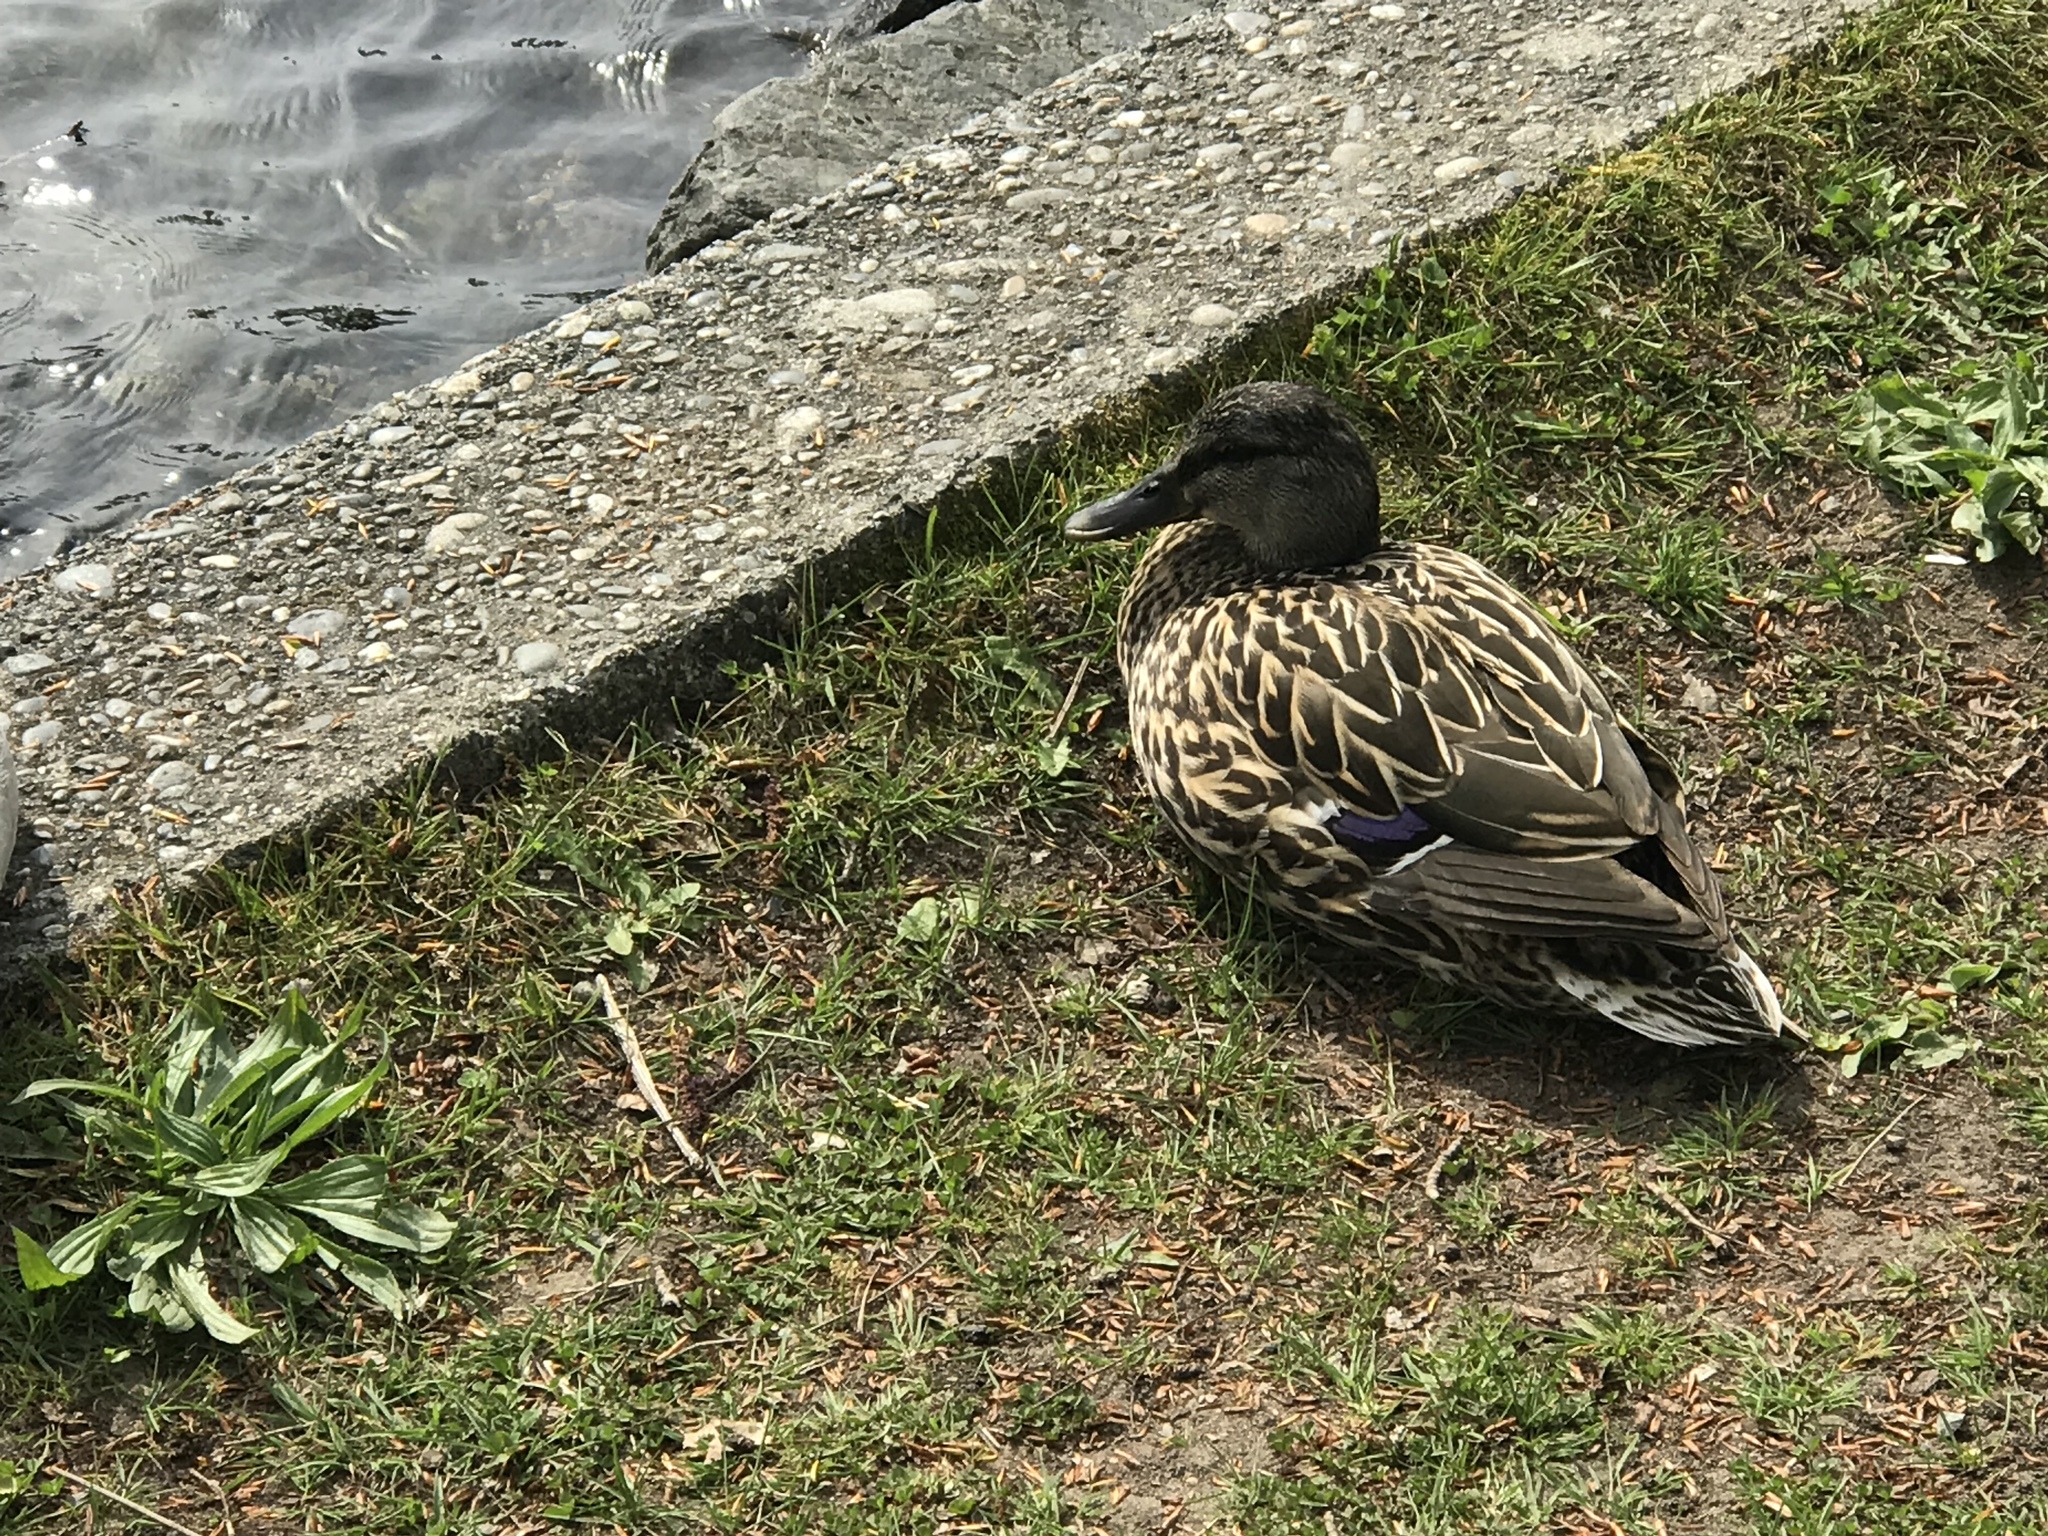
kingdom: Animalia
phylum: Chordata
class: Aves
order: Anseriformes
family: Anatidae
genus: Anas
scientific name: Anas platyrhynchos
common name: Mallard
